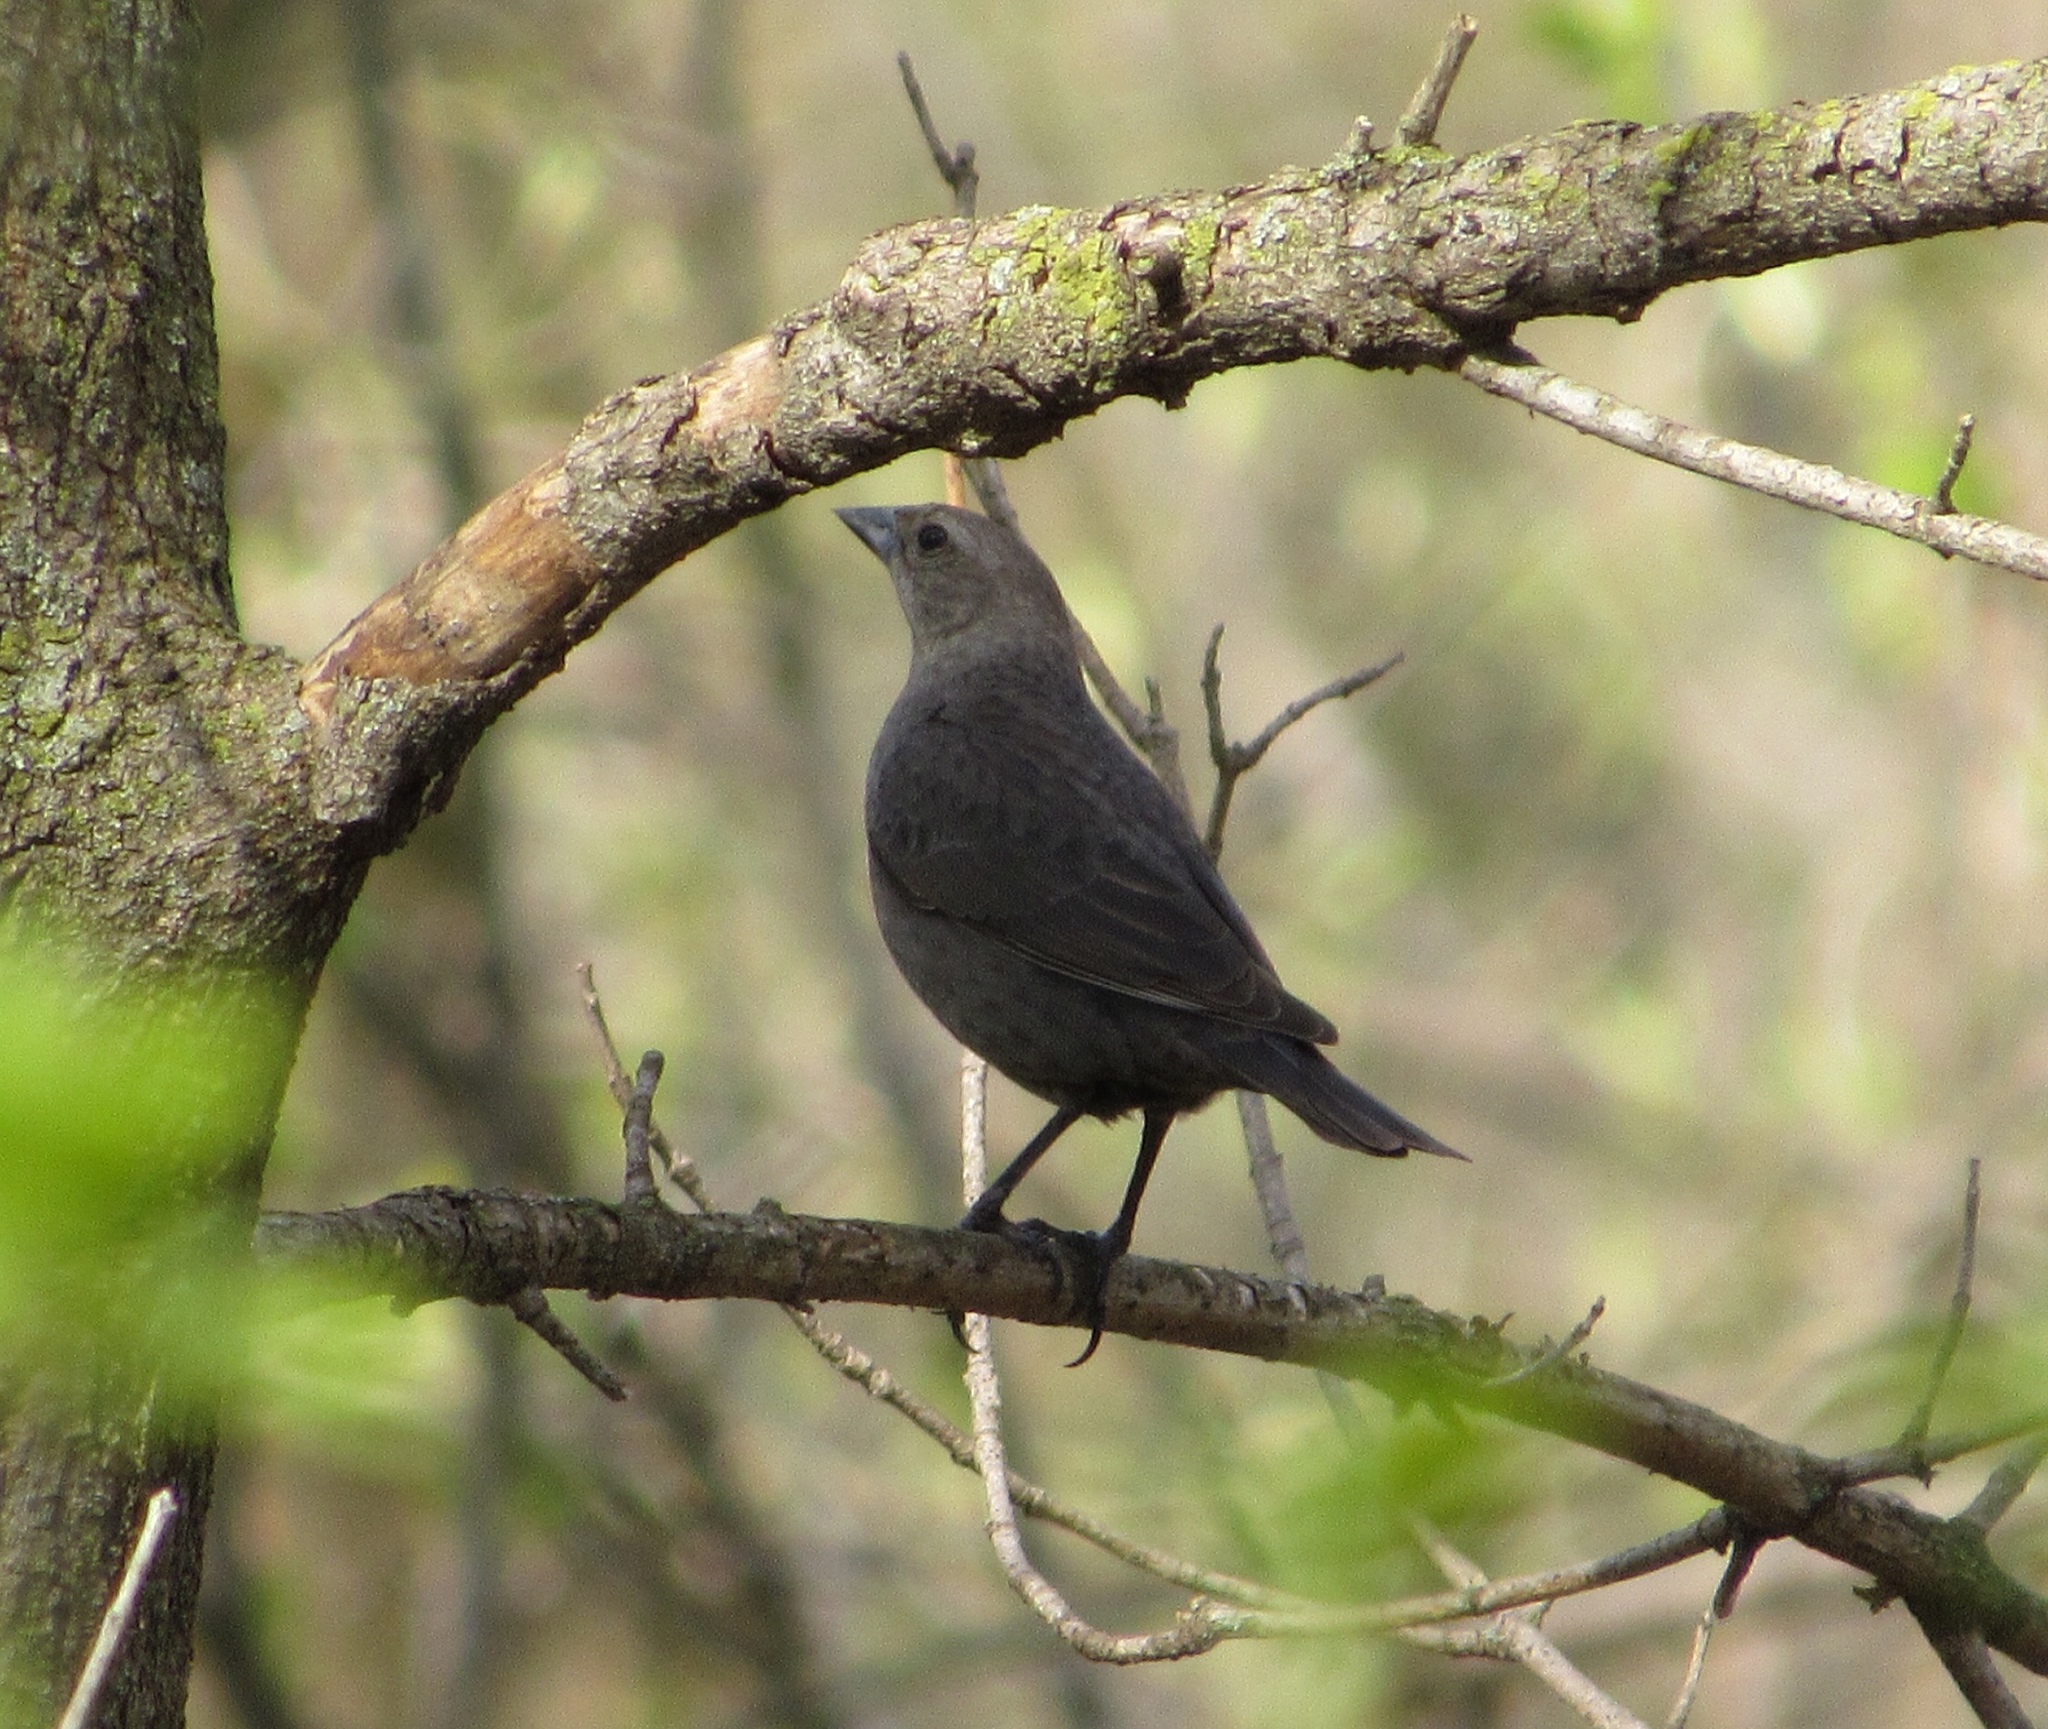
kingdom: Animalia
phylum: Chordata
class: Aves
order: Passeriformes
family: Icteridae
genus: Molothrus
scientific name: Molothrus ater
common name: Brown-headed cowbird
